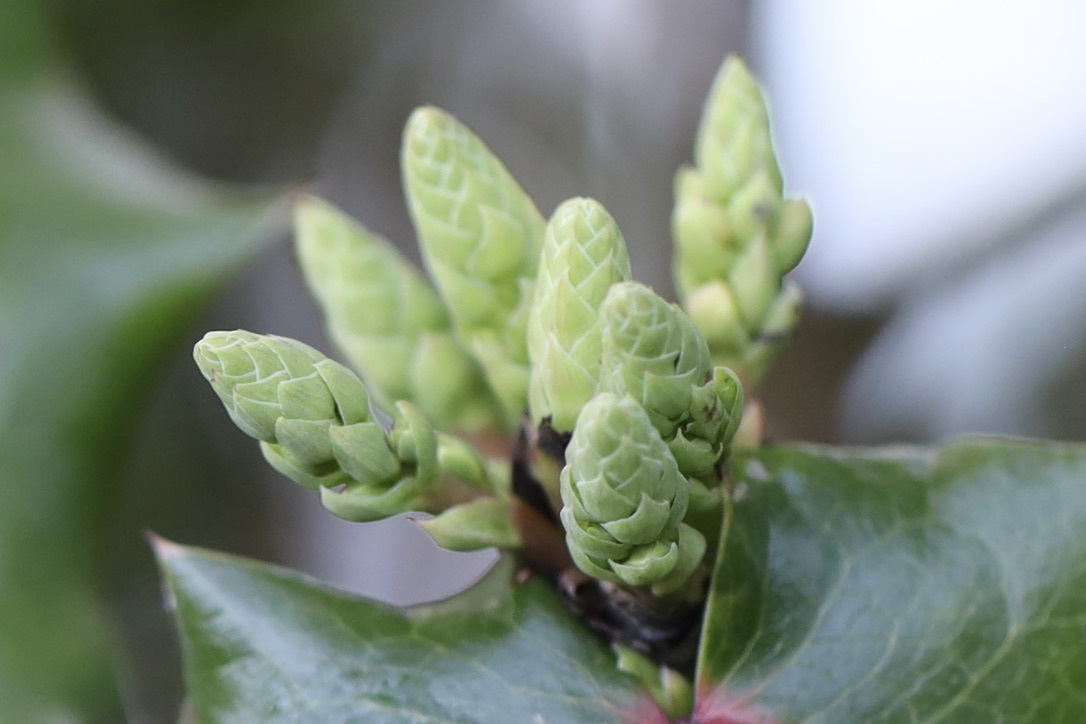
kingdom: Plantae
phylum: Tracheophyta
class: Magnoliopsida
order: Ranunculales
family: Berberidaceae
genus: Mahonia
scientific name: Mahonia aquifolium
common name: Oregon-grape
